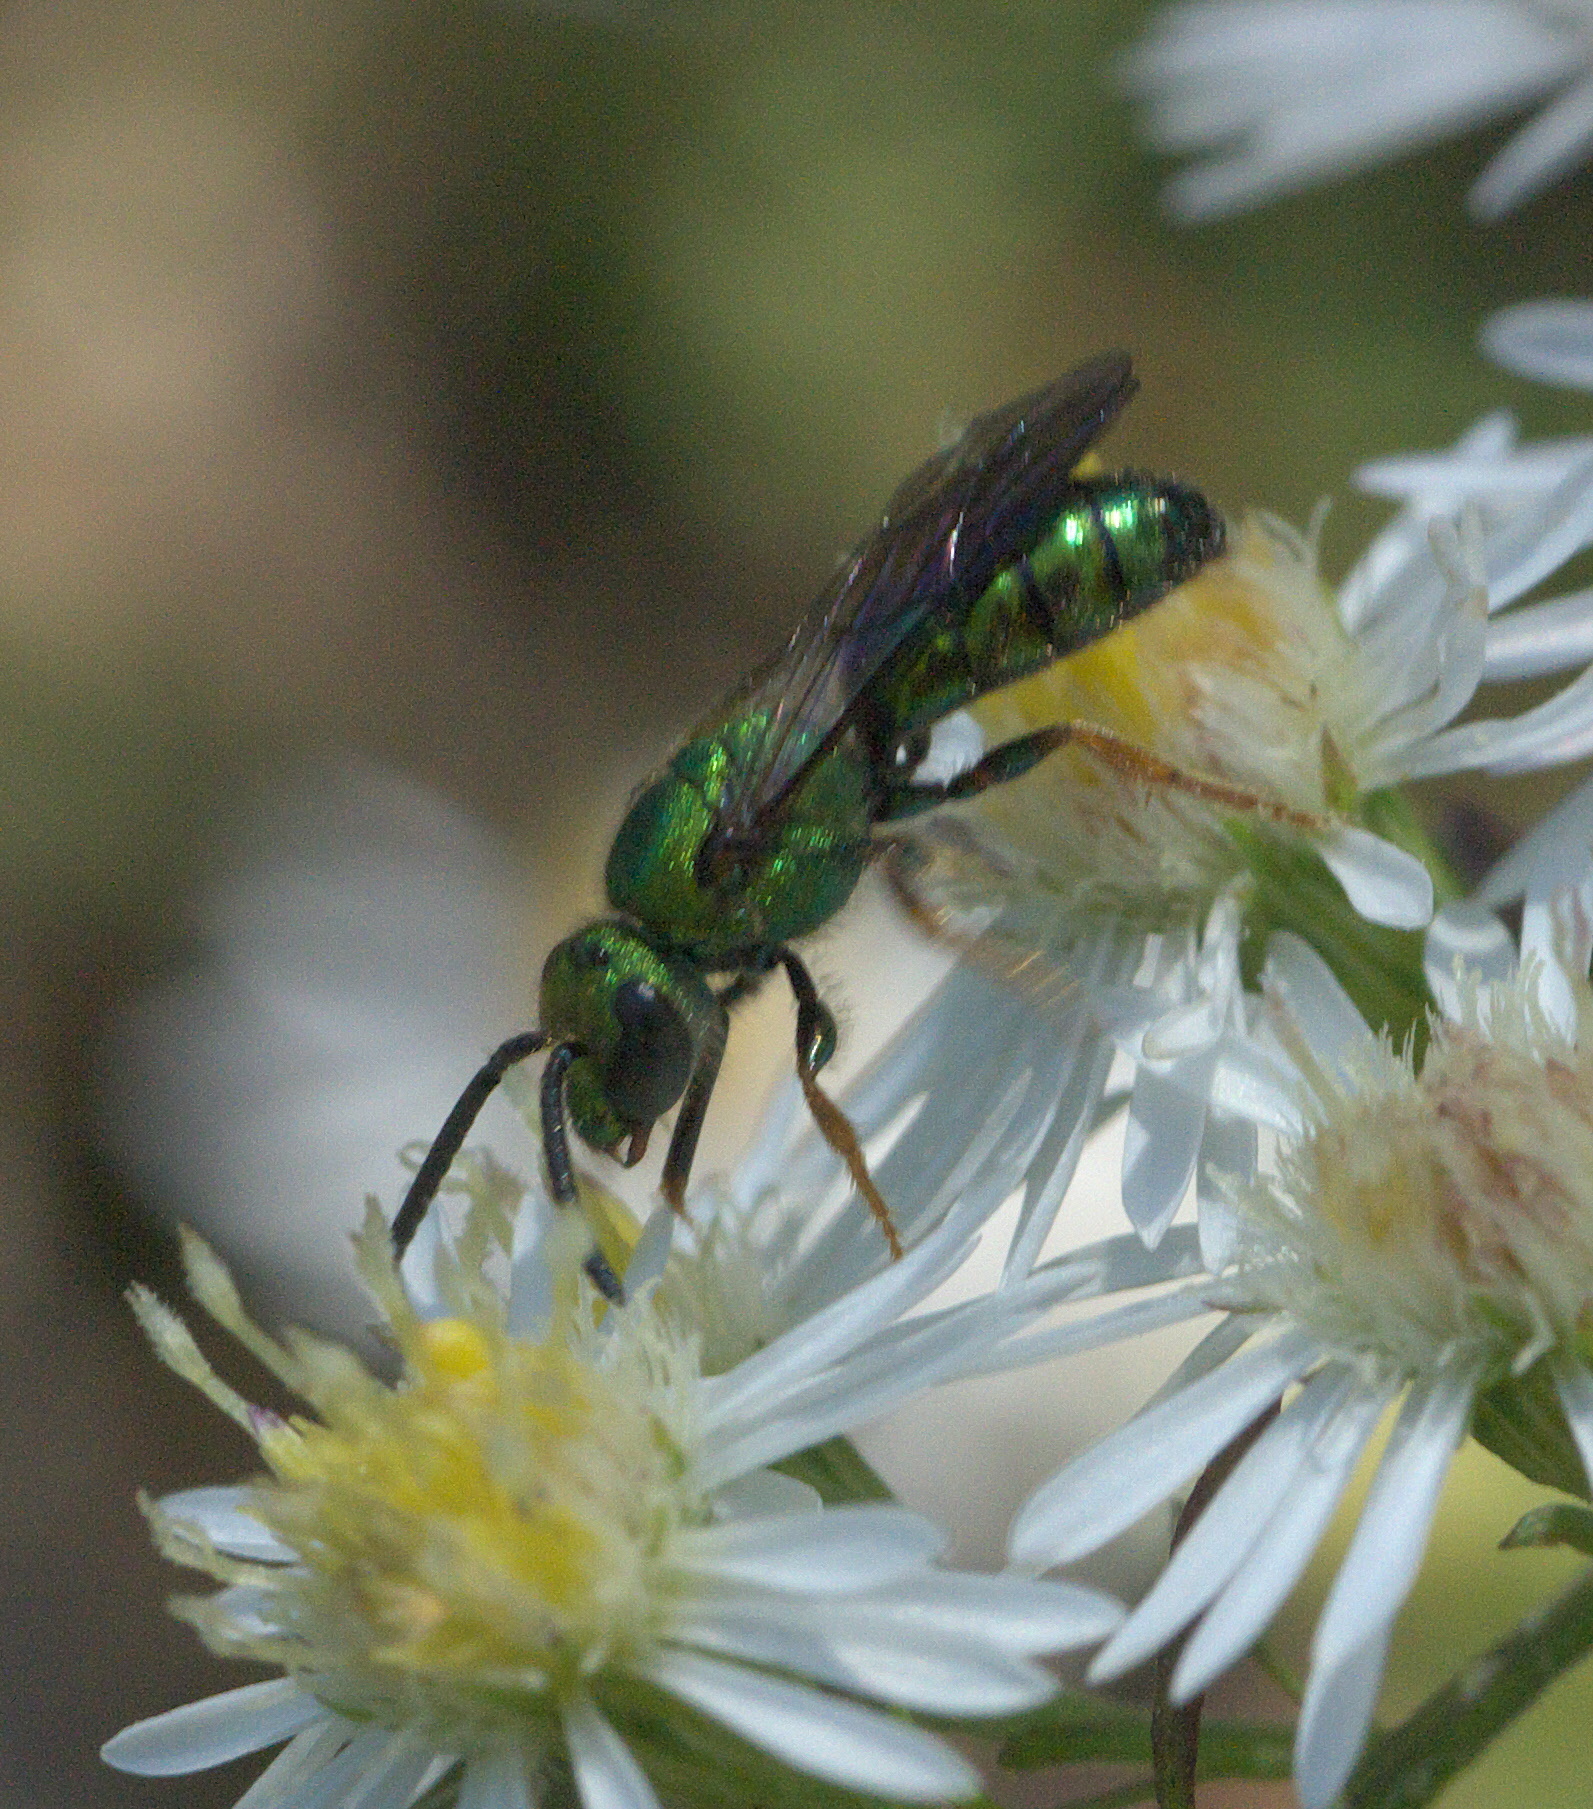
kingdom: Animalia
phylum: Arthropoda
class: Insecta
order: Hymenoptera
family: Halictidae
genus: Augochlora
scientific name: Augochlora pura
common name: Pure green sweat bee
